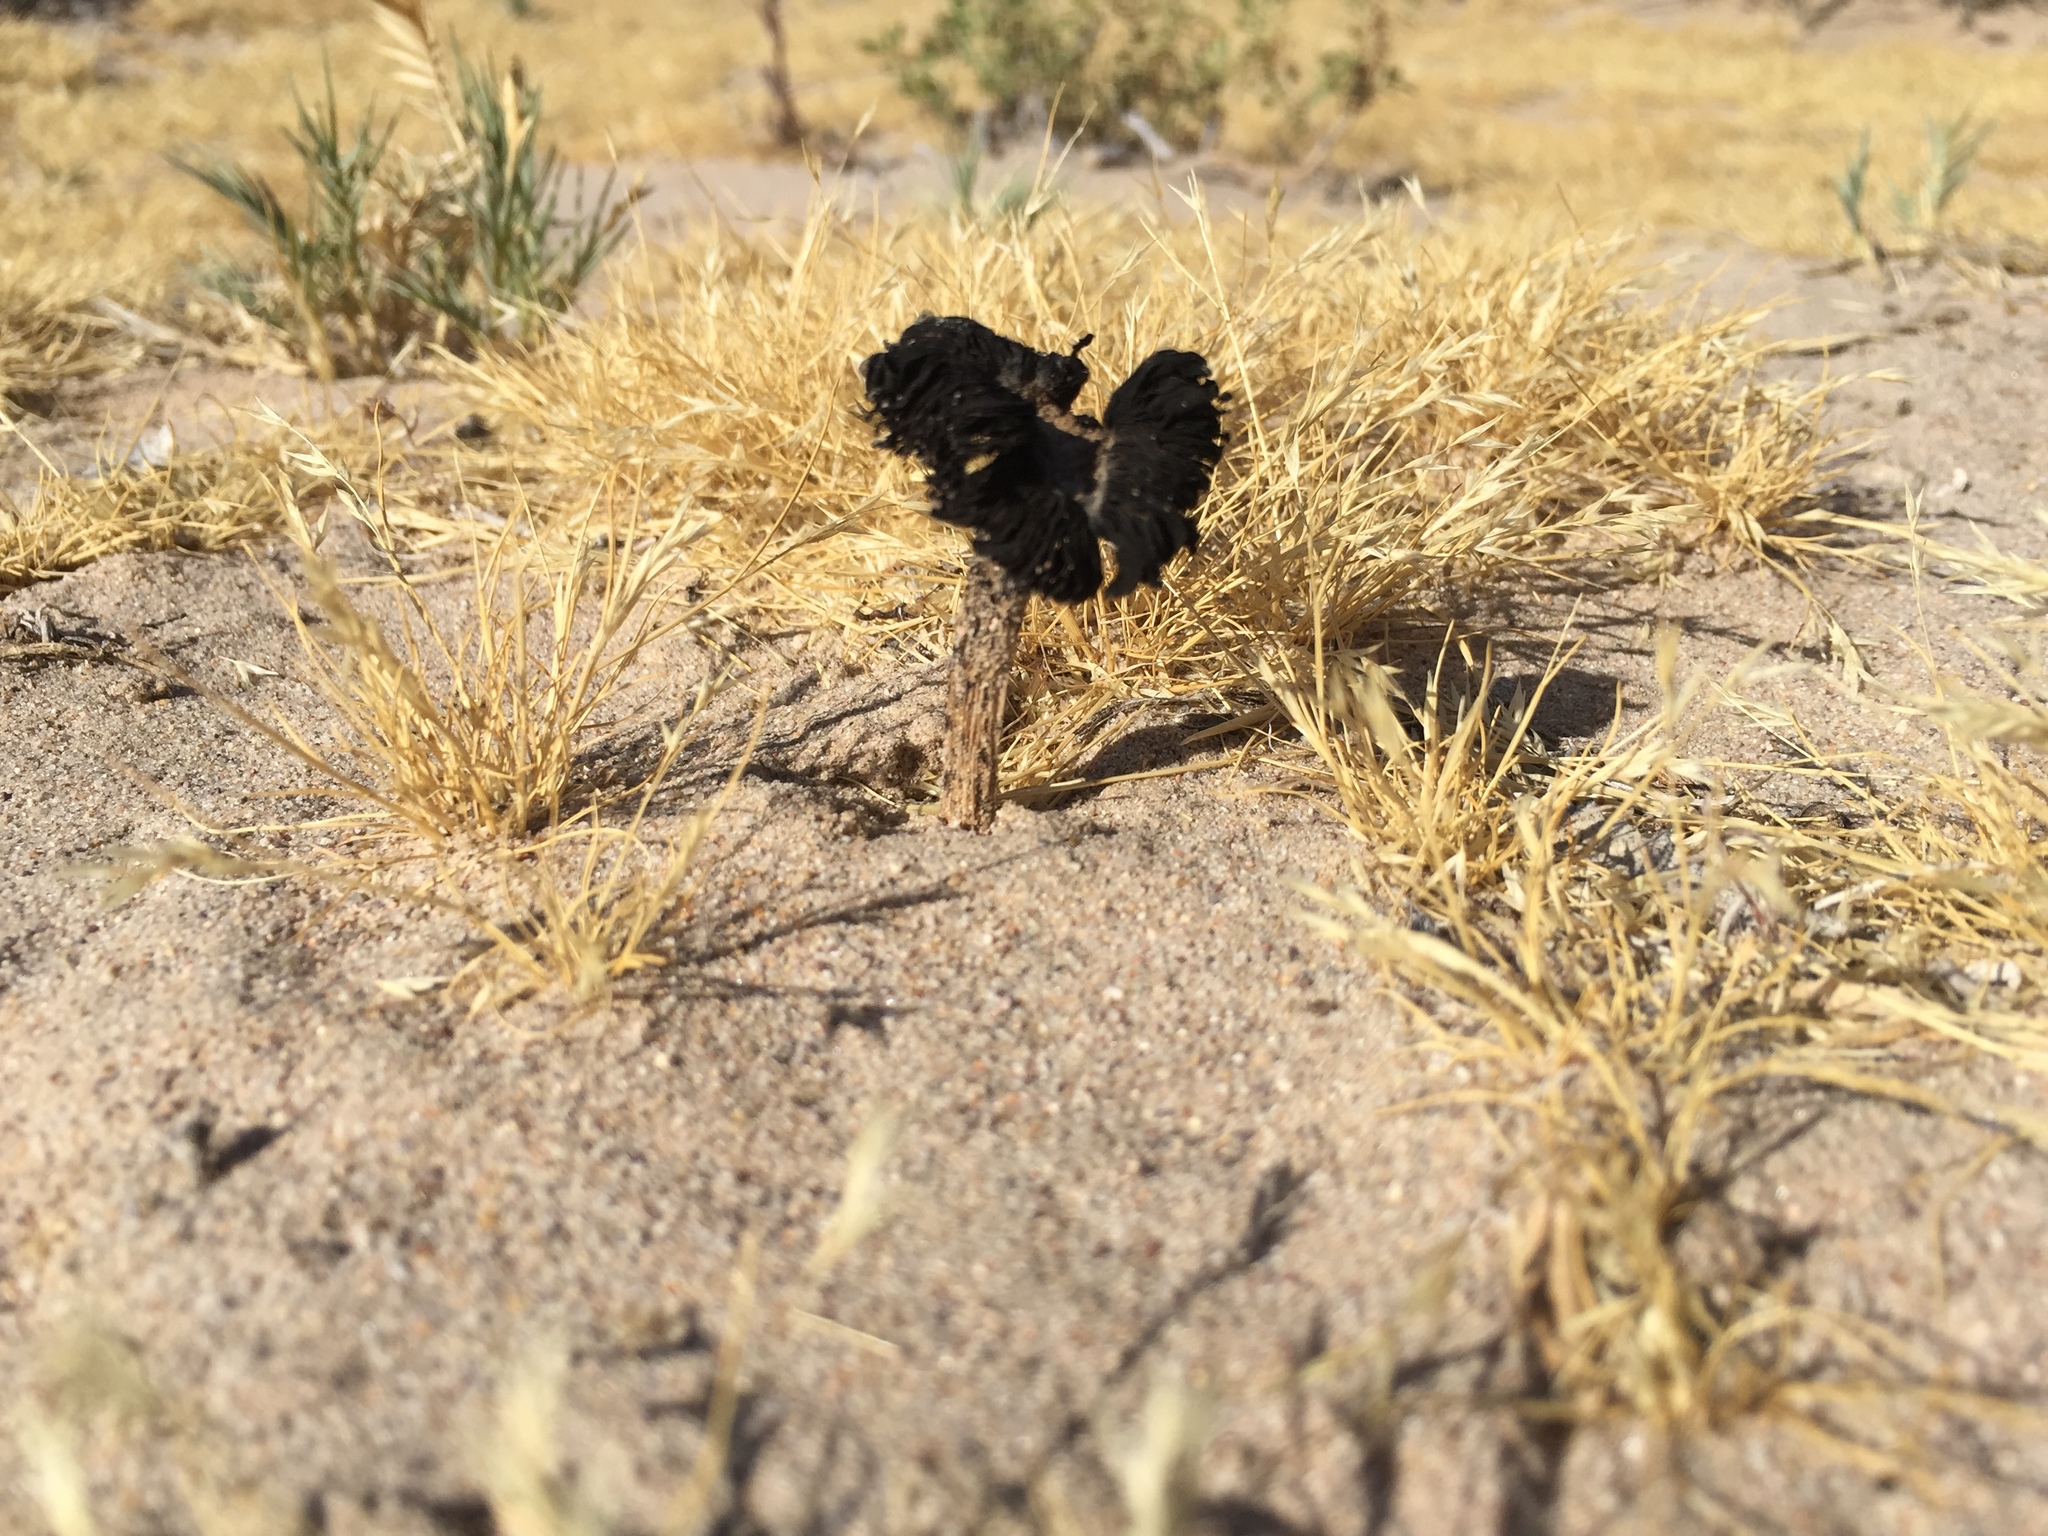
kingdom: Fungi
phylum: Basidiomycota
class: Agaricomycetes
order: Agaricales
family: Agaricaceae
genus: Montagnea
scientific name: Montagnea arenaria
